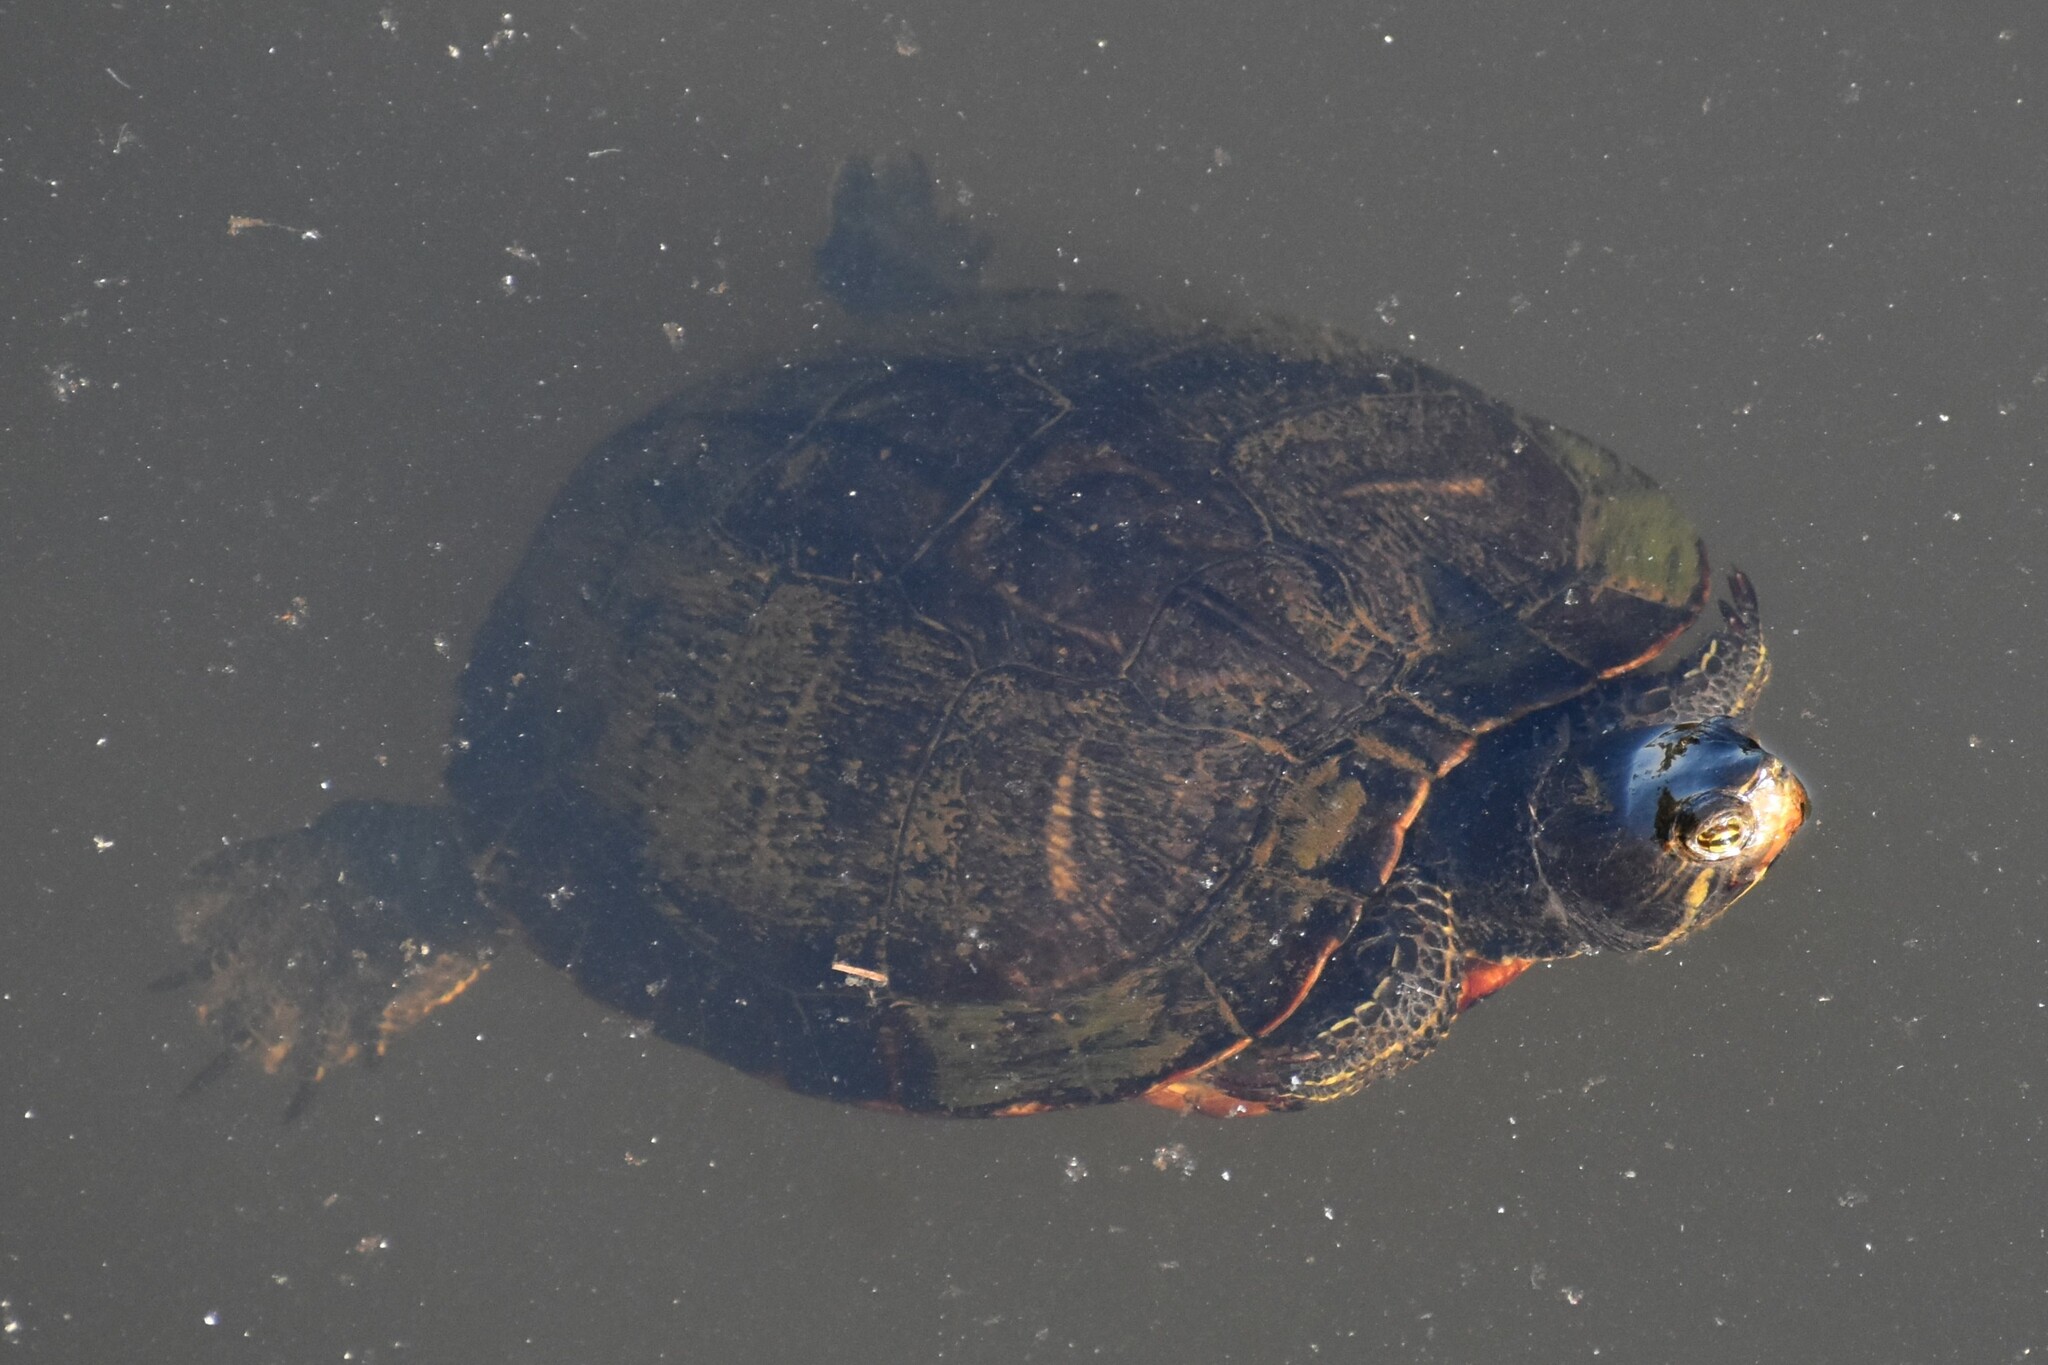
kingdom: Animalia
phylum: Chordata
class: Testudines
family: Emydidae
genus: Trachemys
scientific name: Trachemys scripta
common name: Slider
